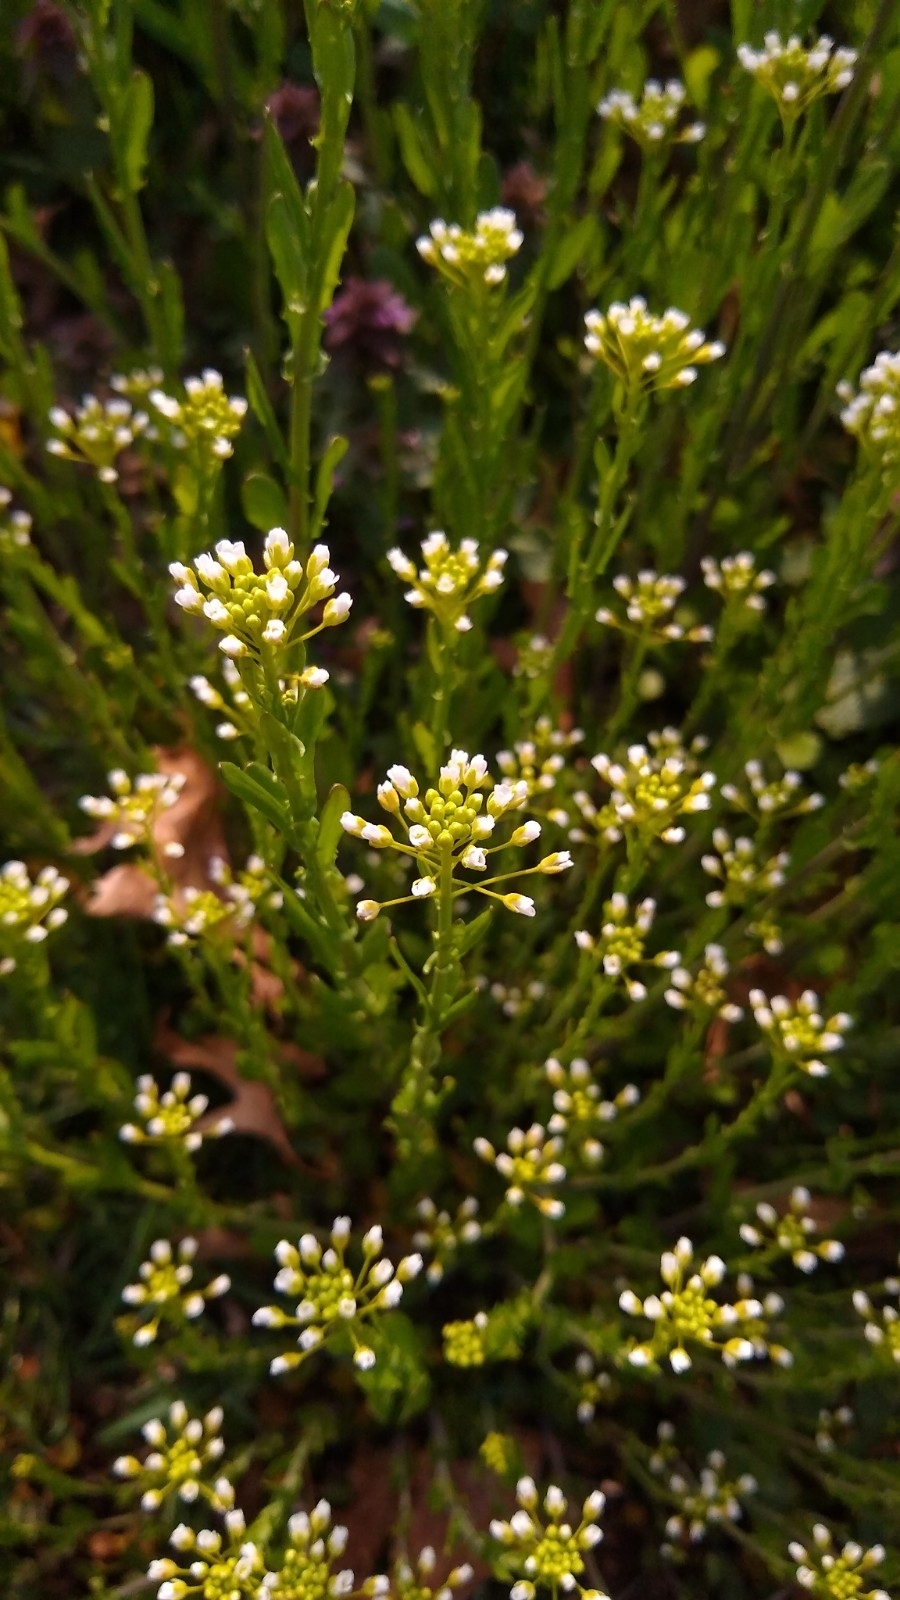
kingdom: Plantae
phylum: Tracheophyta
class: Magnoliopsida
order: Brassicales
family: Brassicaceae
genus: Mummenhoffia
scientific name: Mummenhoffia alliacea
